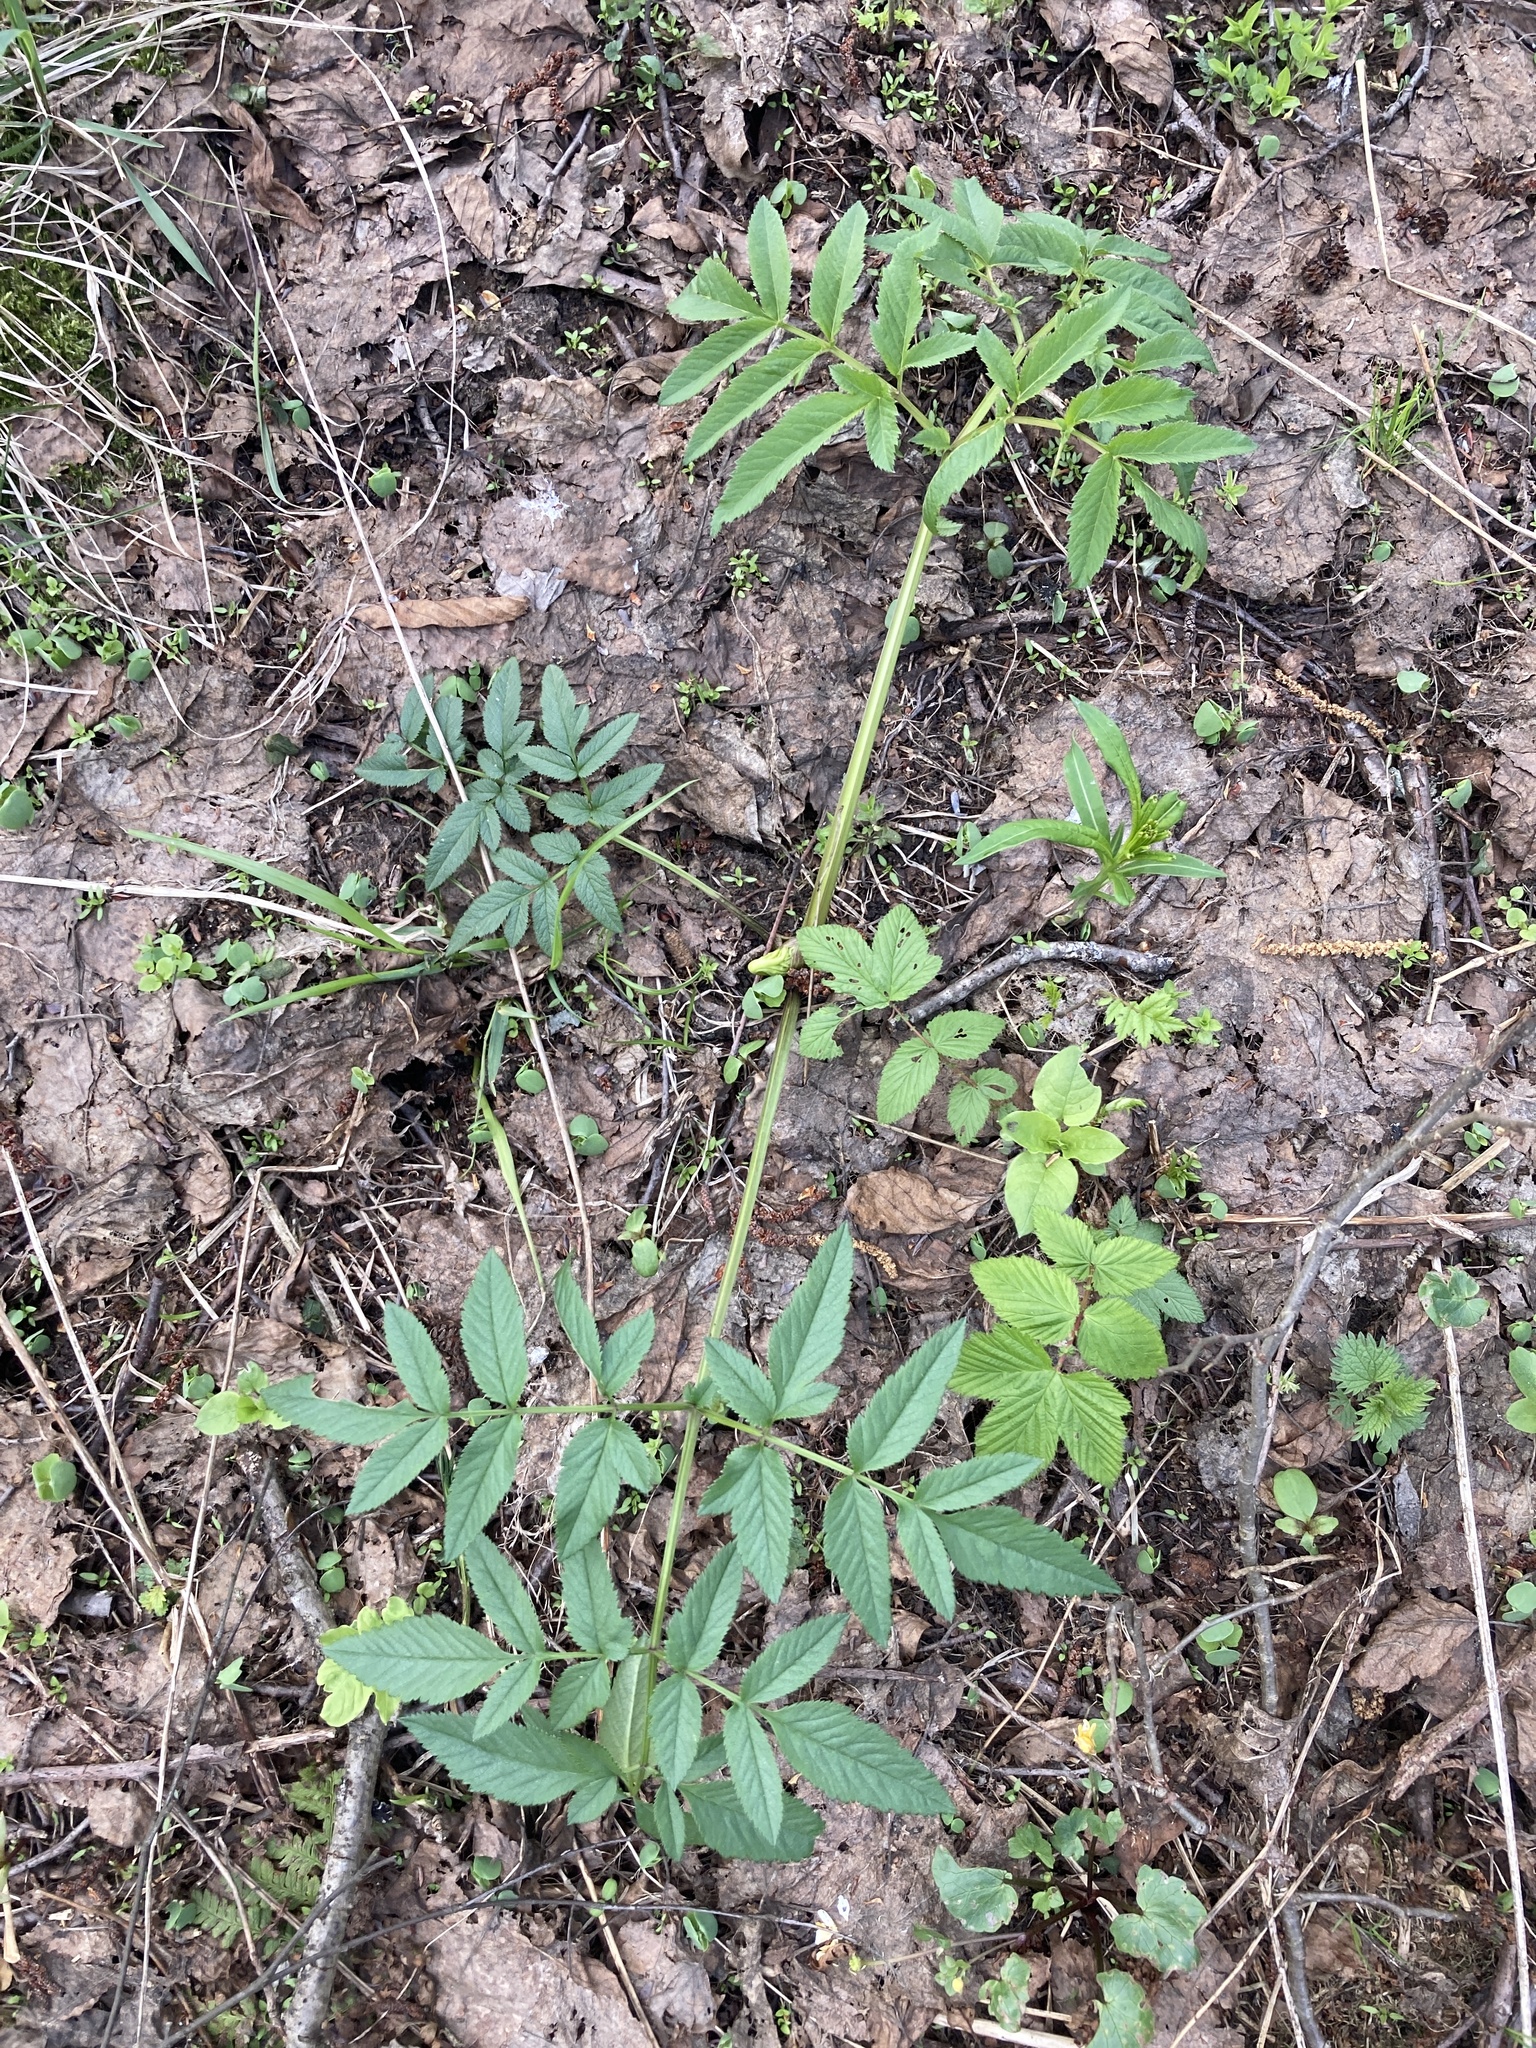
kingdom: Plantae
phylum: Tracheophyta
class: Magnoliopsida
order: Apiales
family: Apiaceae
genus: Angelica
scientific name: Angelica sylvestris
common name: Wild angelica
